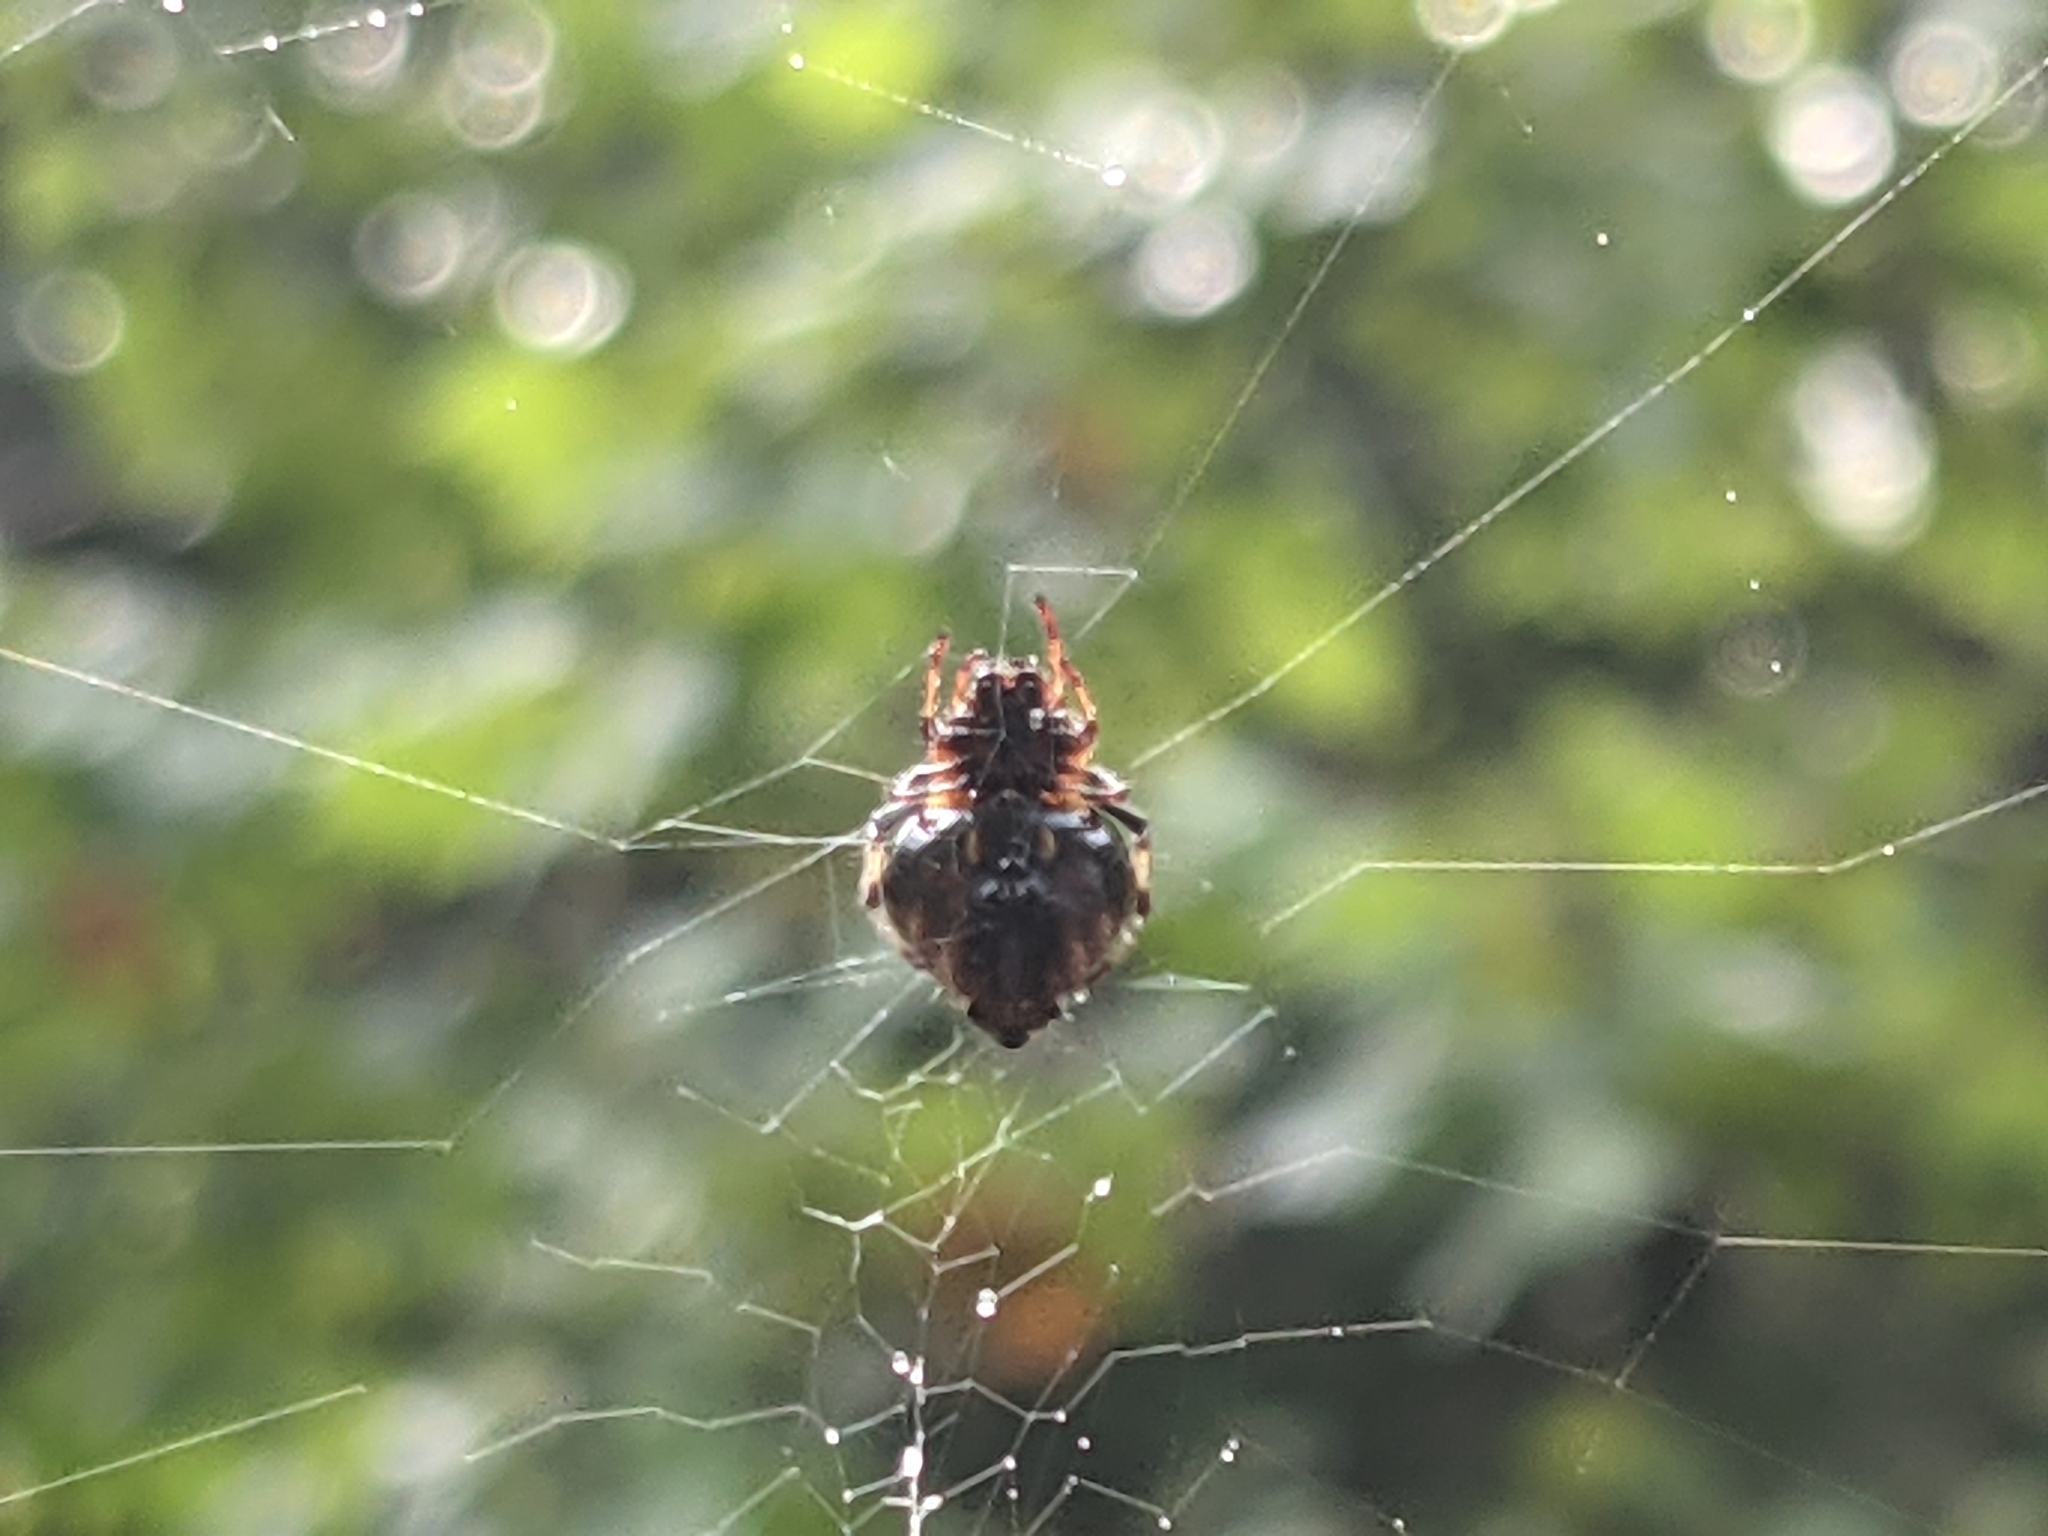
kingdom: Animalia
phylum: Arthropoda
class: Arachnida
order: Araneae
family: Araneidae
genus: Verrucosa
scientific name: Verrucosa arenata
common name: Orb weavers
